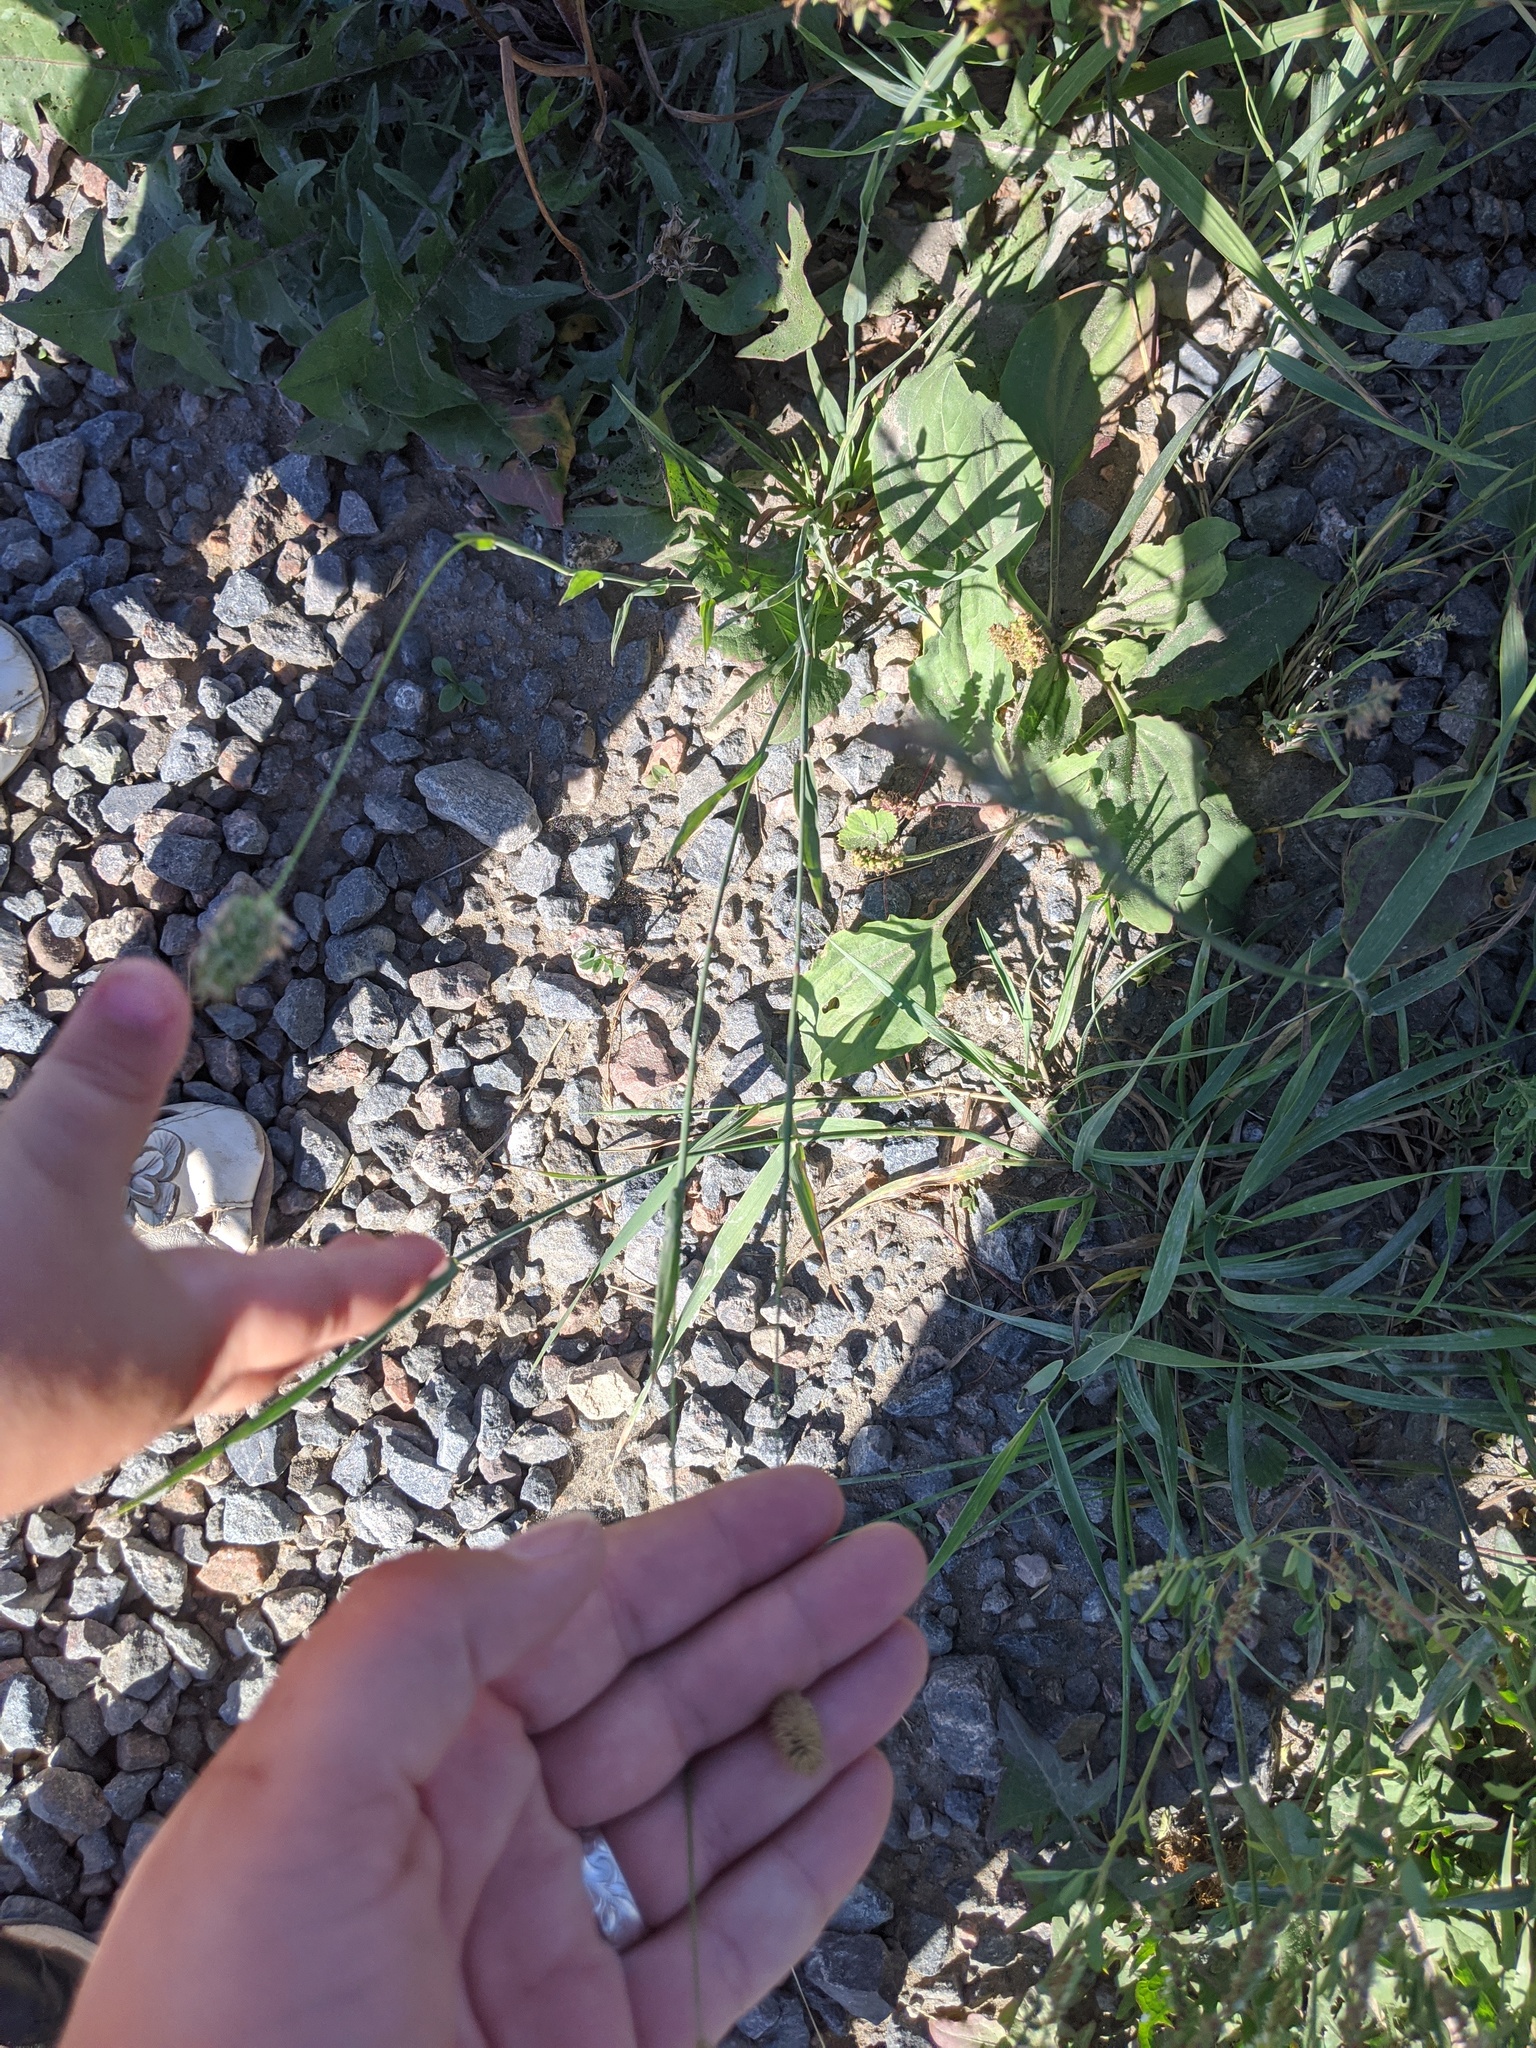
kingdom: Plantae
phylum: Tracheophyta
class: Liliopsida
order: Poales
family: Poaceae
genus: Phleum
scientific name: Phleum pratense
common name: Timothy grass
